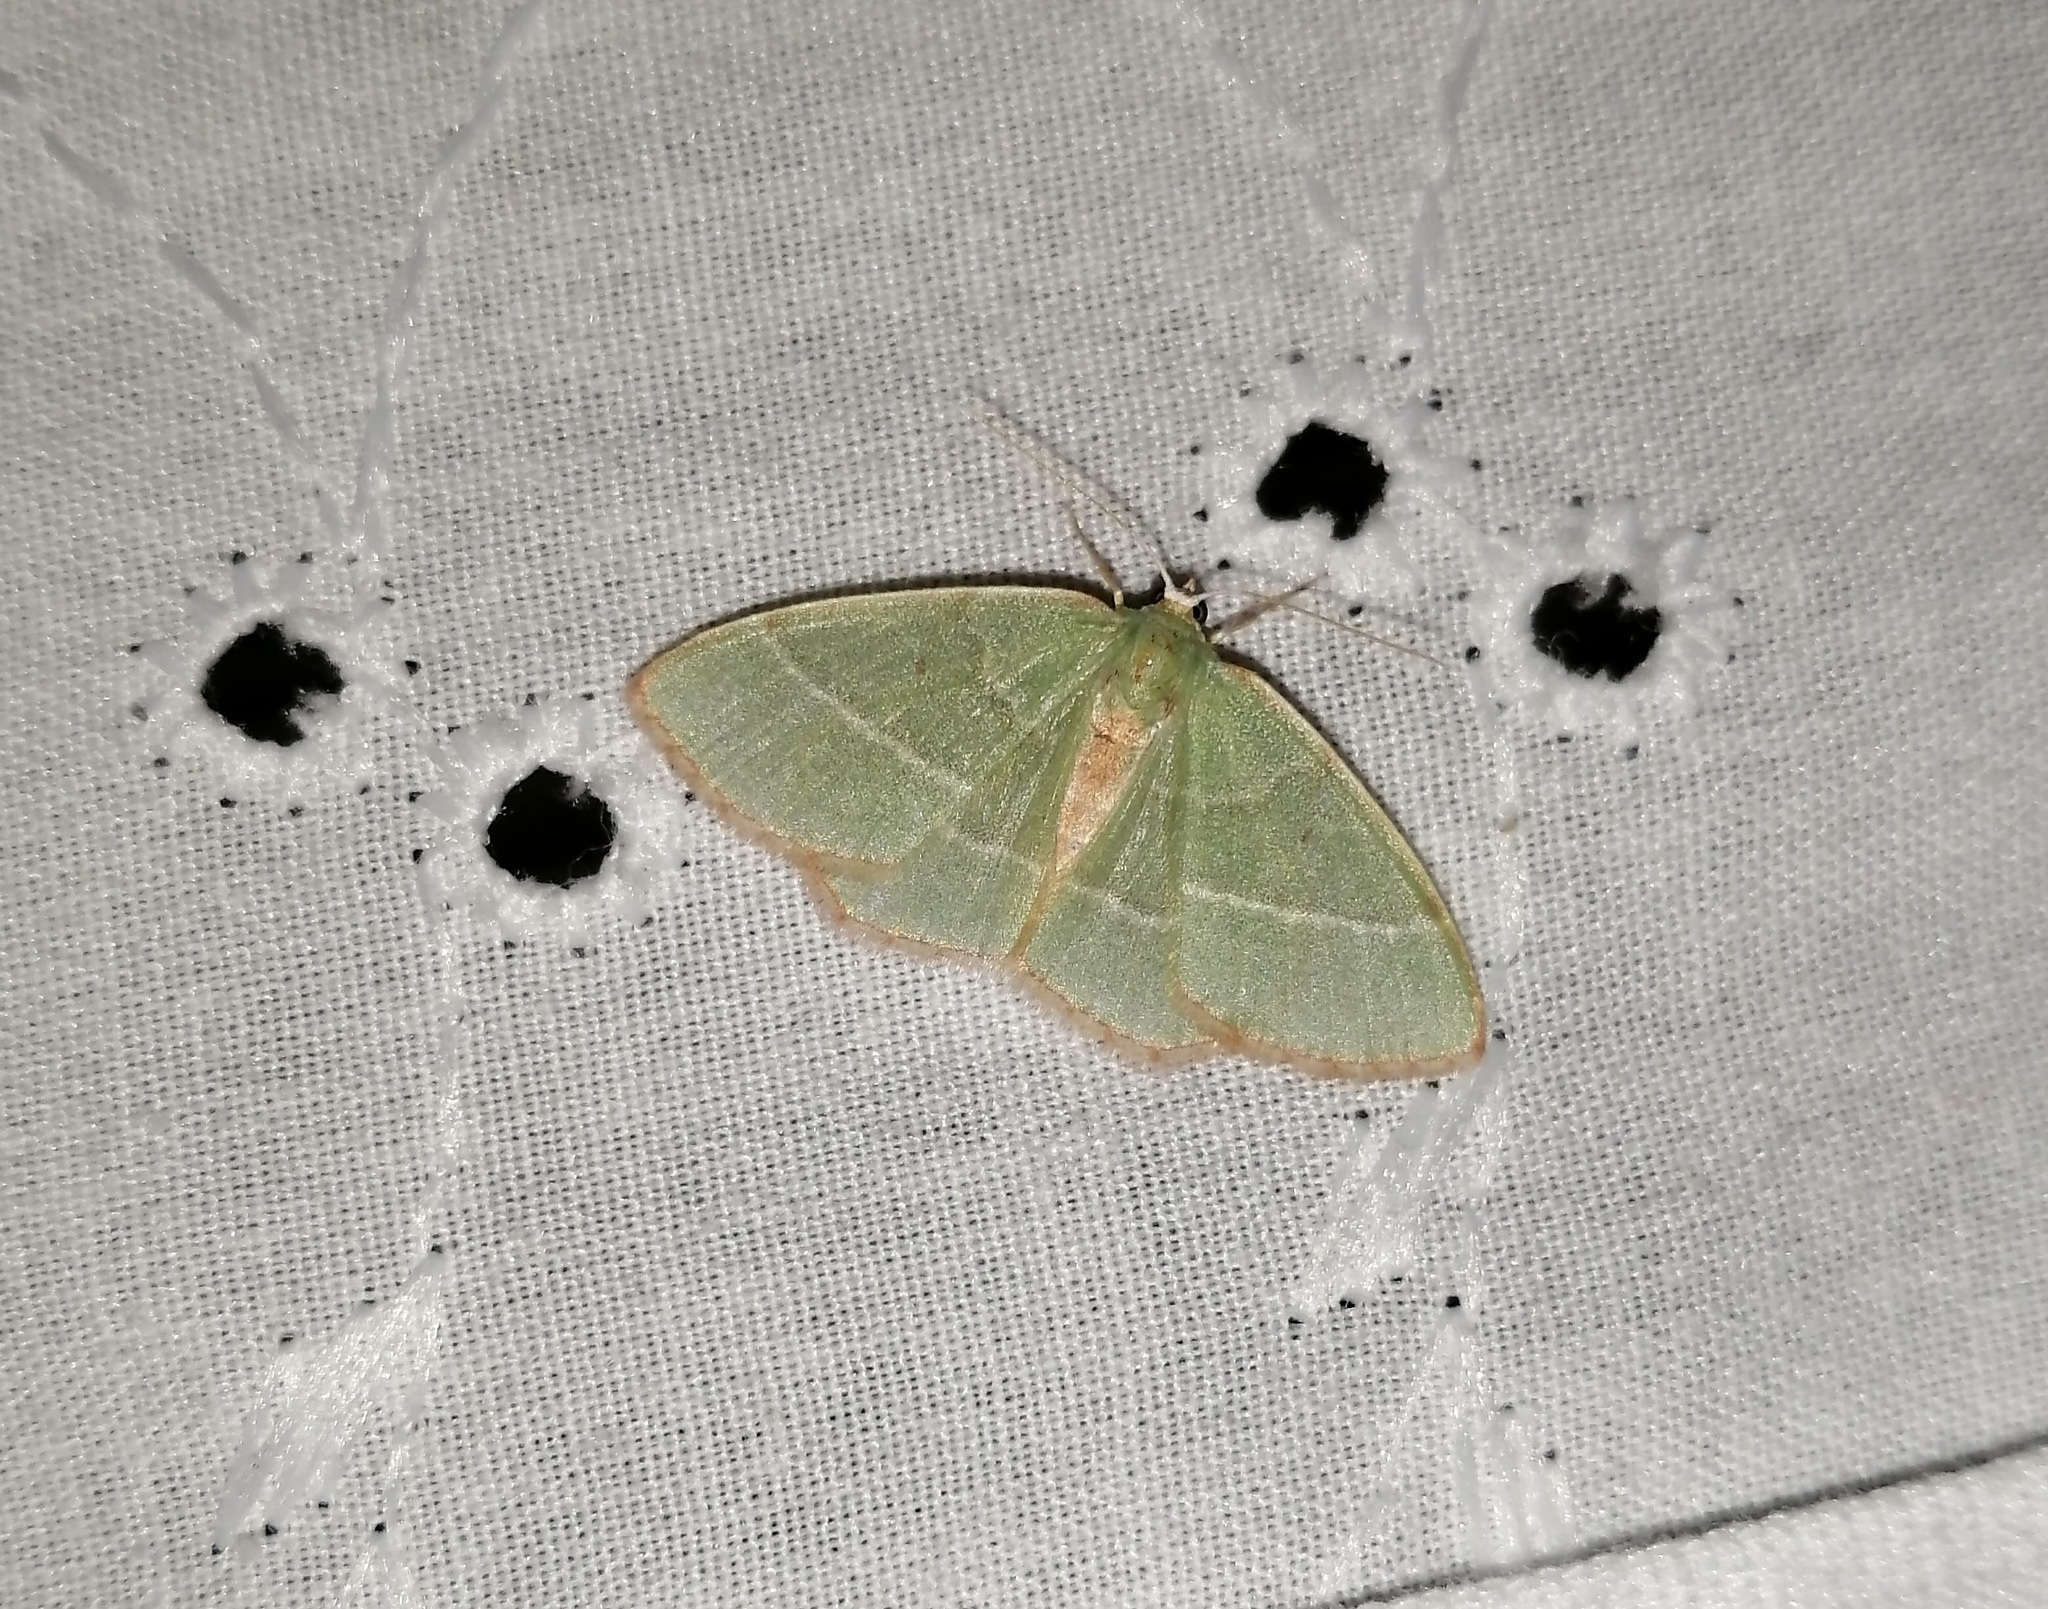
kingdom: Animalia
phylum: Arthropoda
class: Insecta
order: Lepidoptera
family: Geometridae
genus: Nemoria
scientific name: Nemoria bistriaria
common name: Red-fringed emerald
